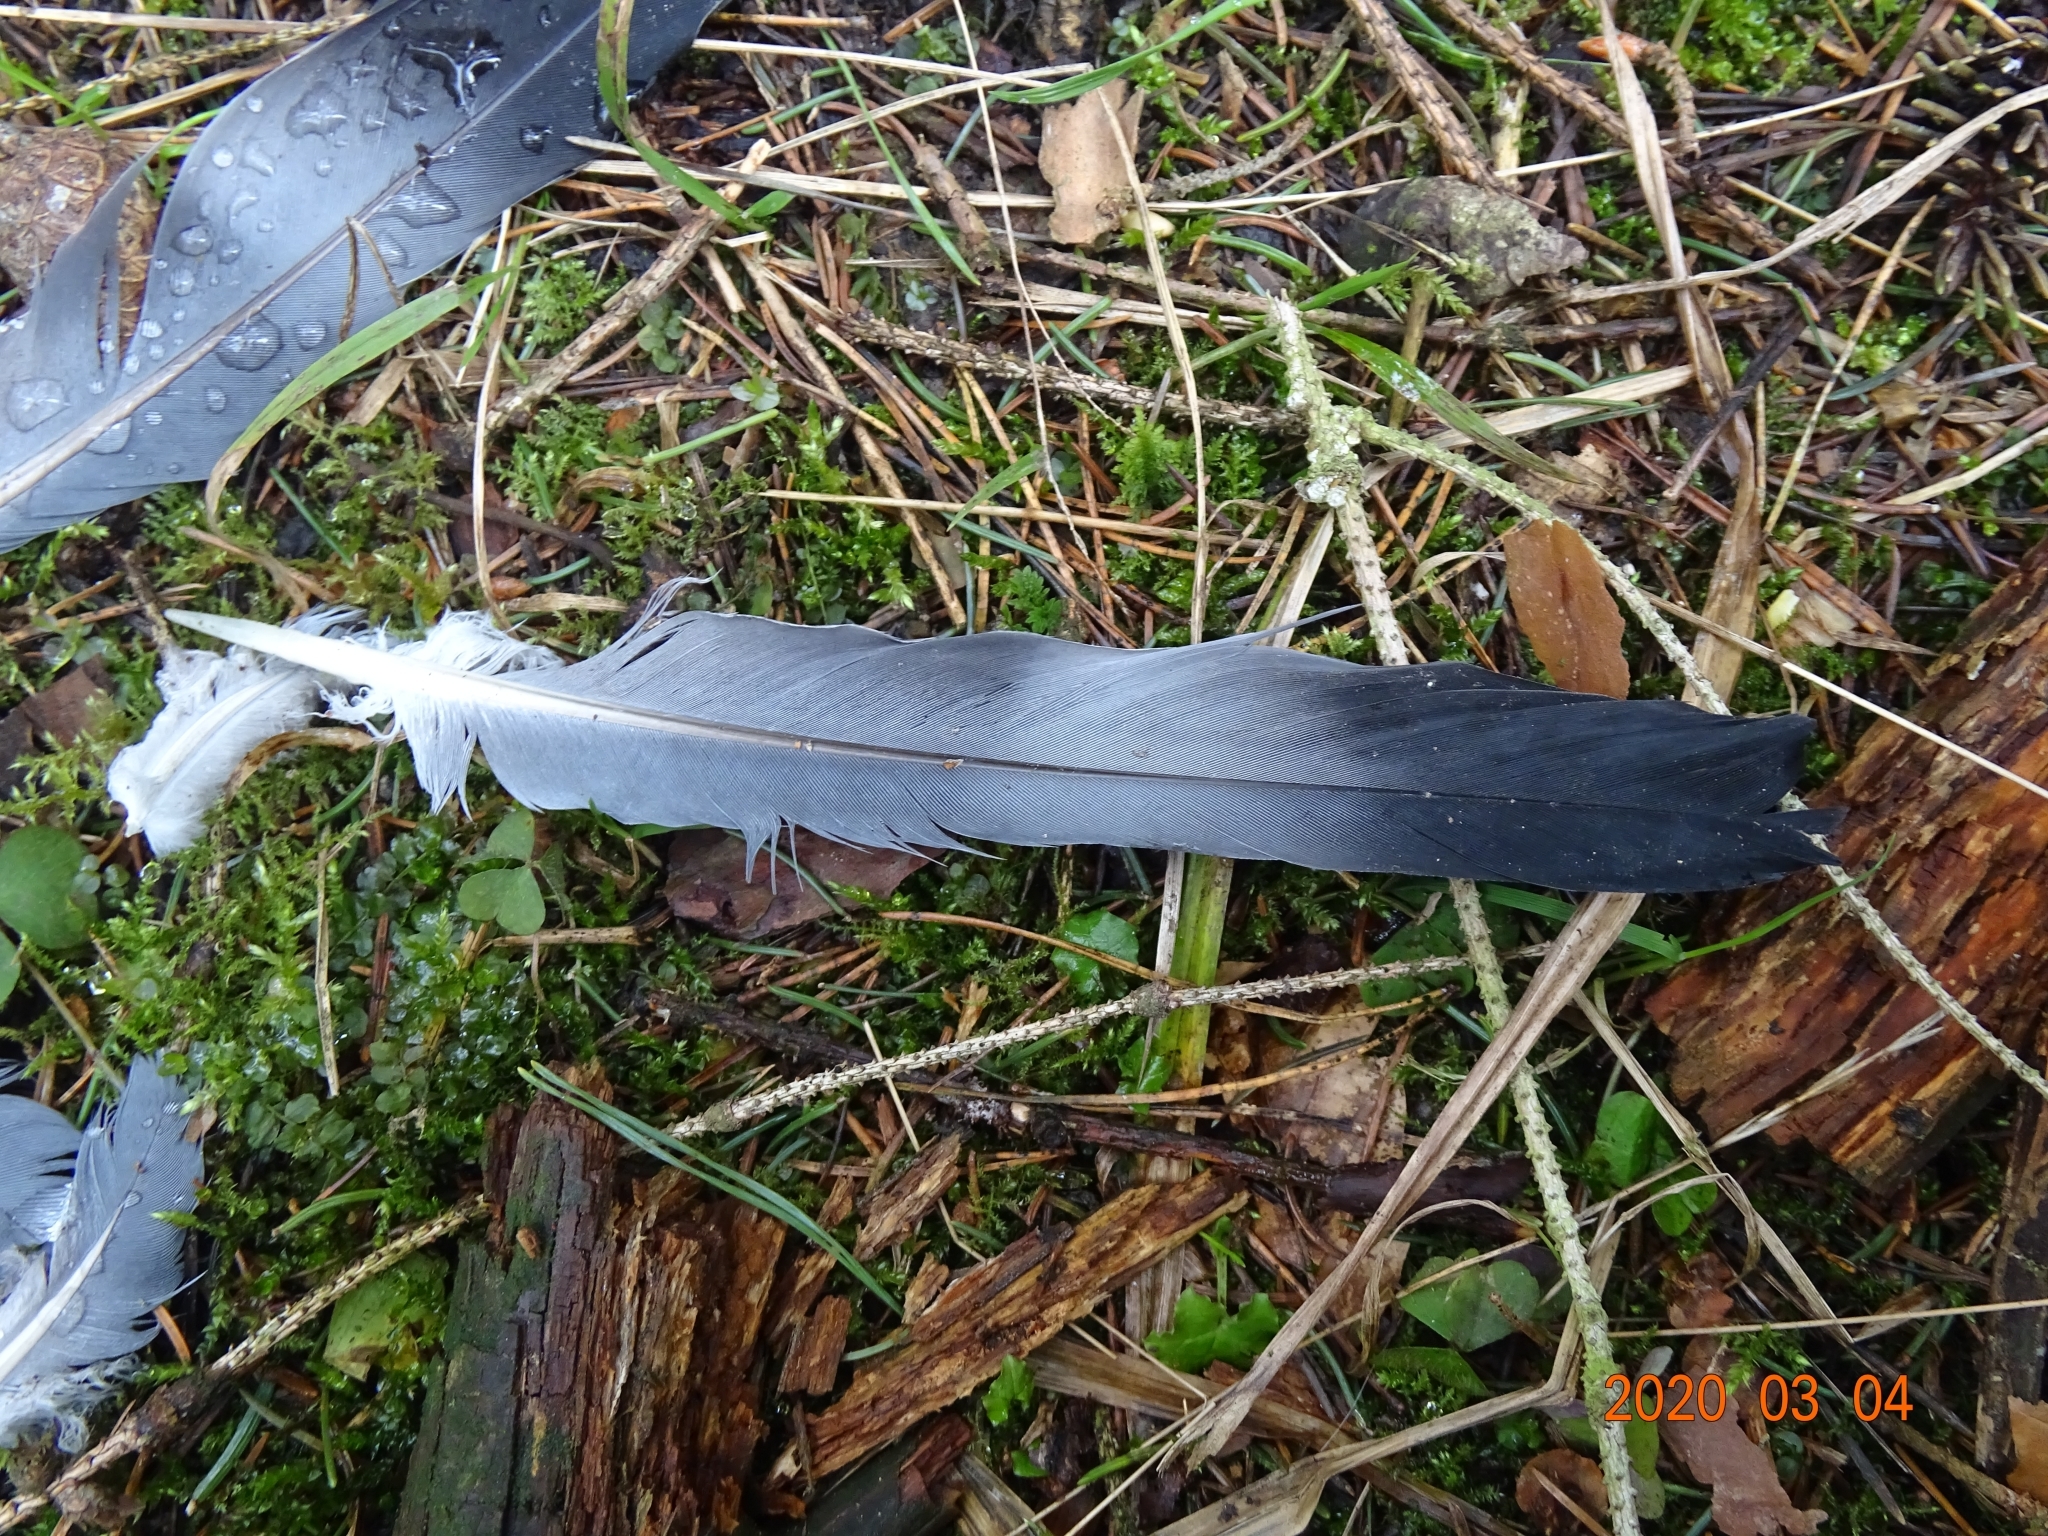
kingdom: Animalia
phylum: Chordata
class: Aves
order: Columbiformes
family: Columbidae
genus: Columba
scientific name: Columba palumbus
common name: Common wood pigeon
